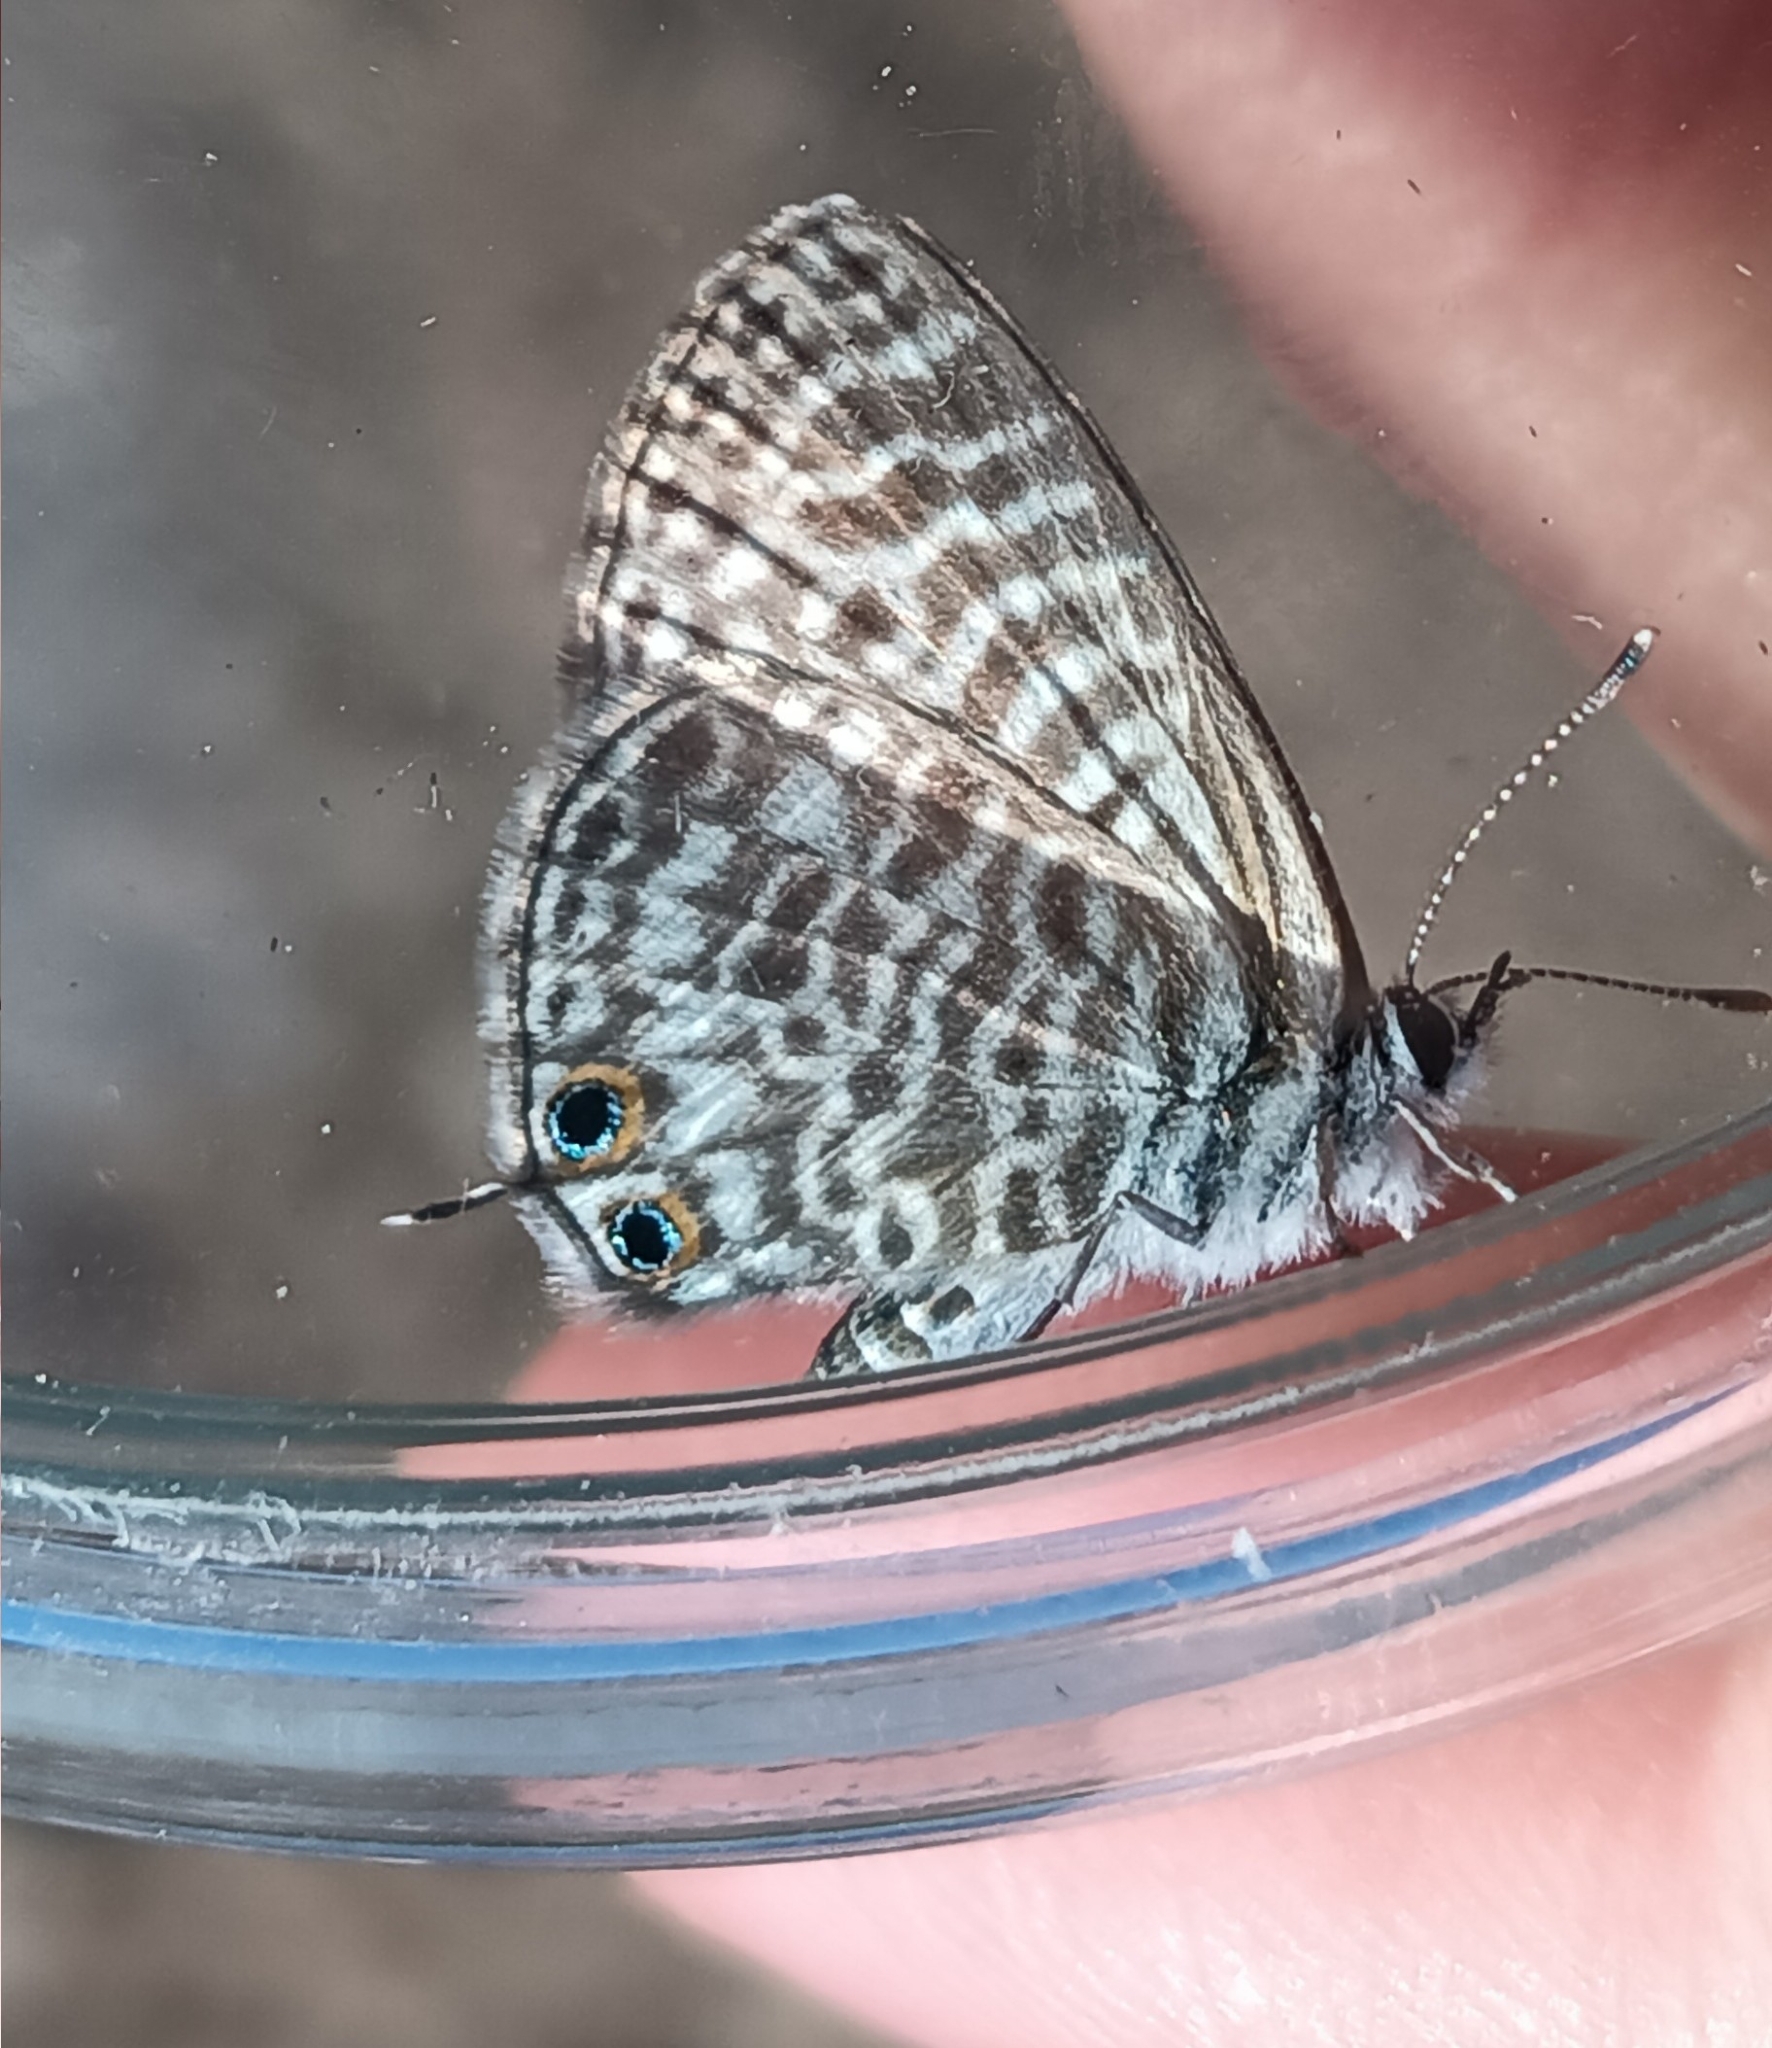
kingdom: Animalia
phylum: Arthropoda
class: Insecta
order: Lepidoptera
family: Lycaenidae
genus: Leptotes
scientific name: Leptotes pirithous
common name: Lang's short-tailed blue
